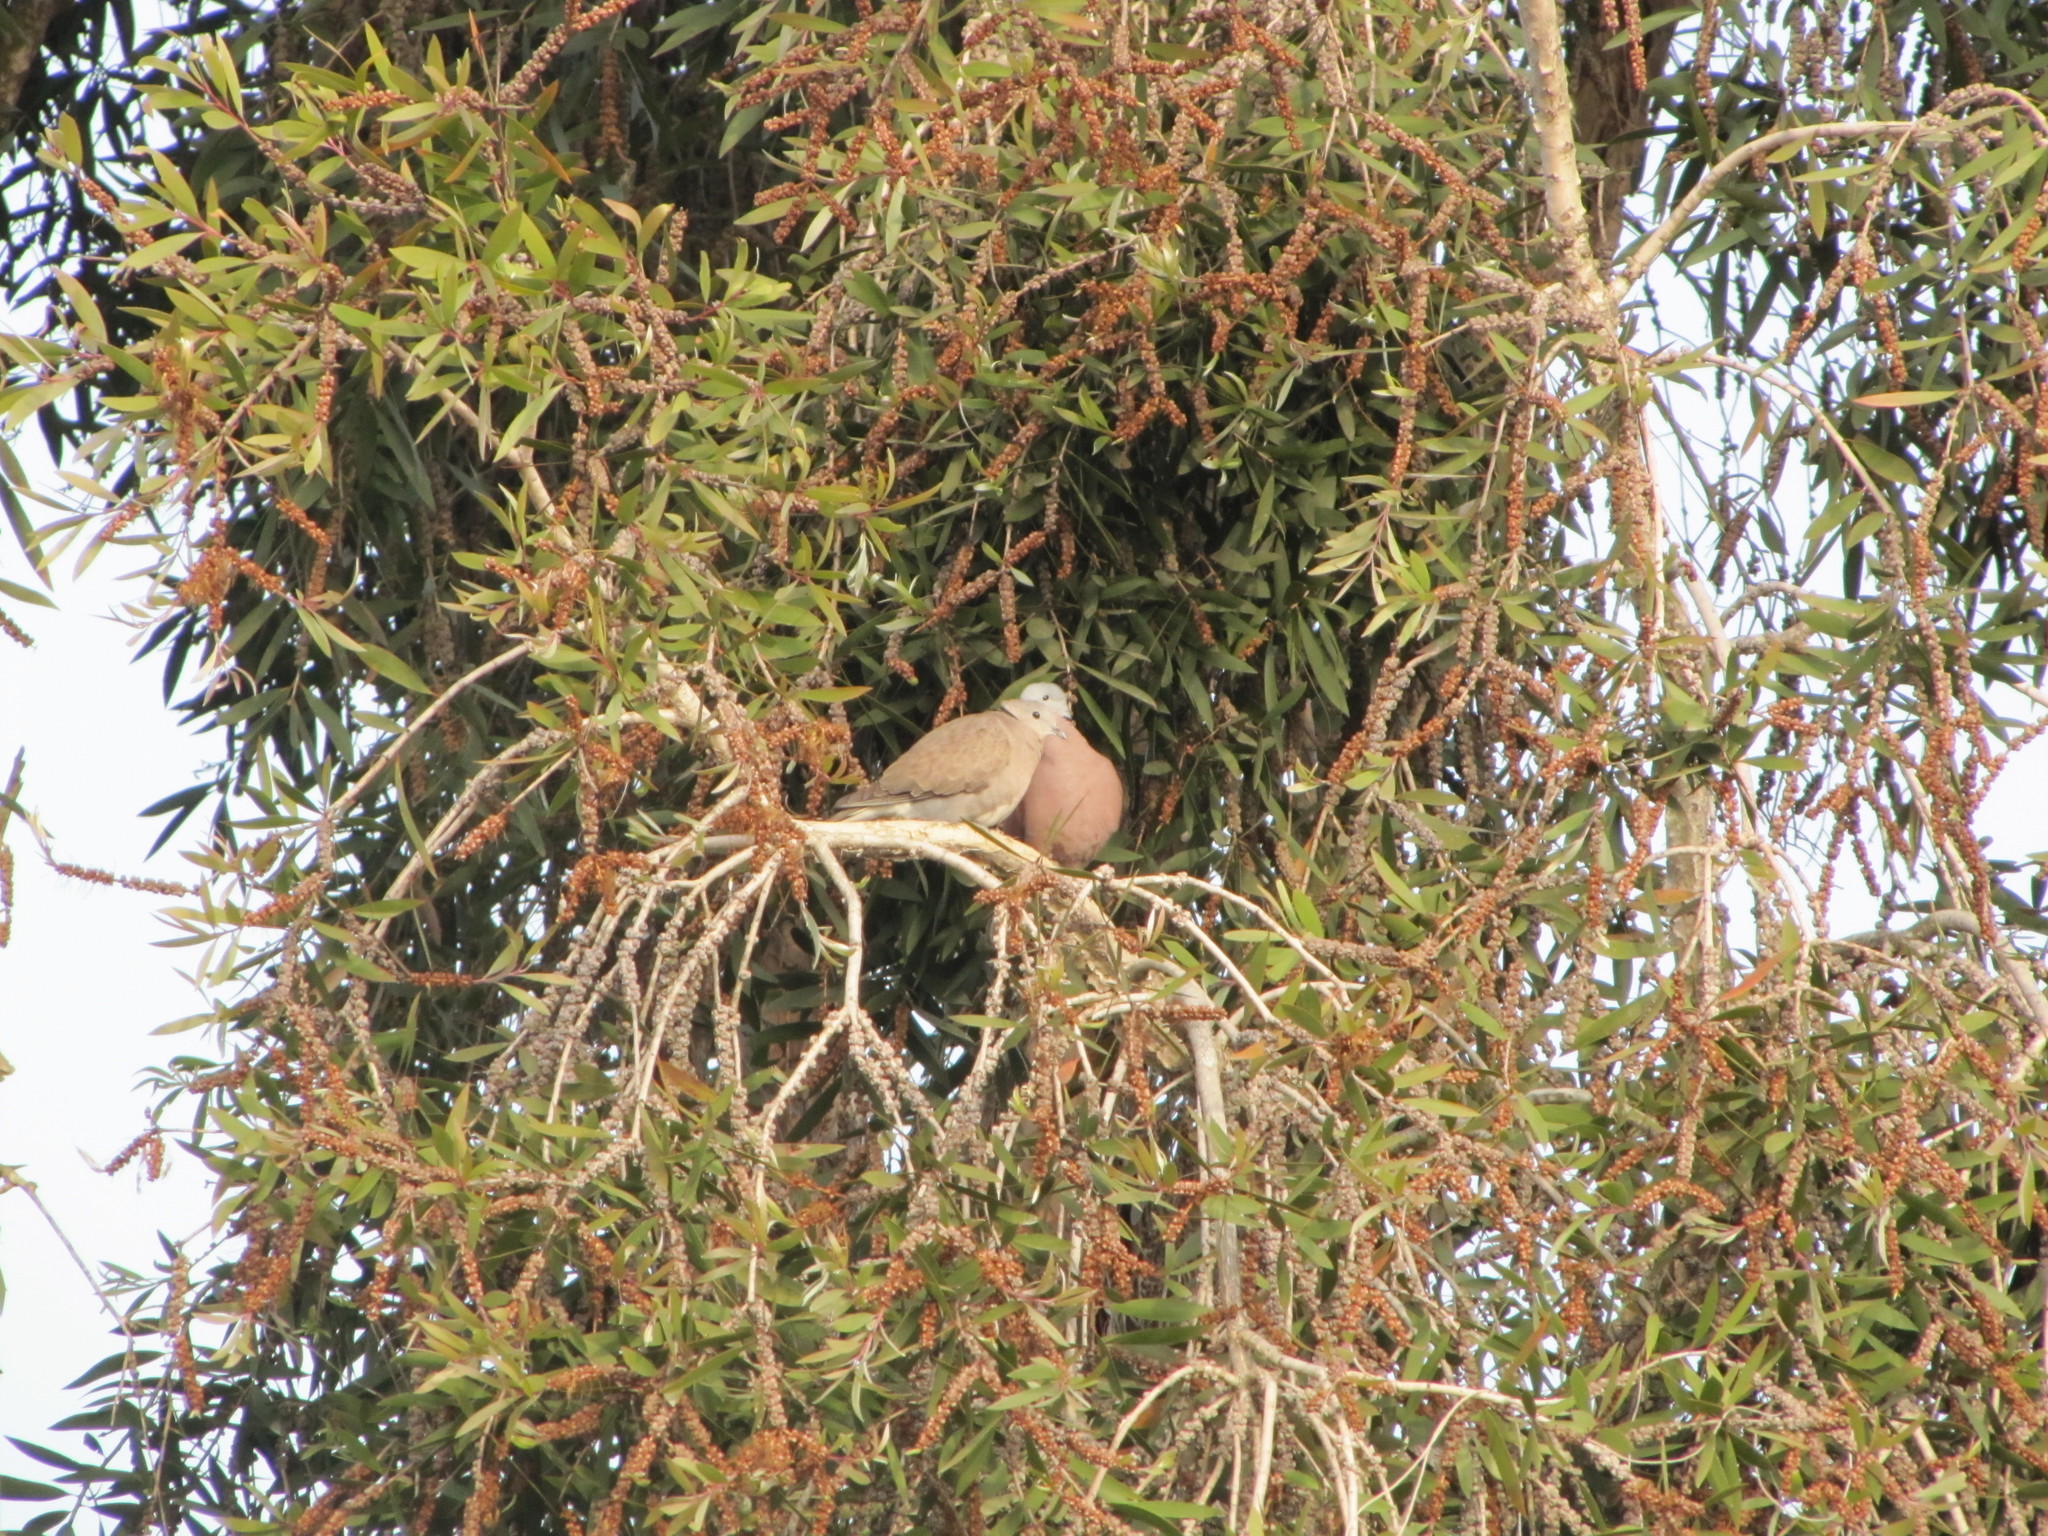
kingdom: Animalia
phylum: Chordata
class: Aves
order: Columbiformes
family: Columbidae
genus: Streptopelia
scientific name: Streptopelia tranquebarica
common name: Red turtle dove
